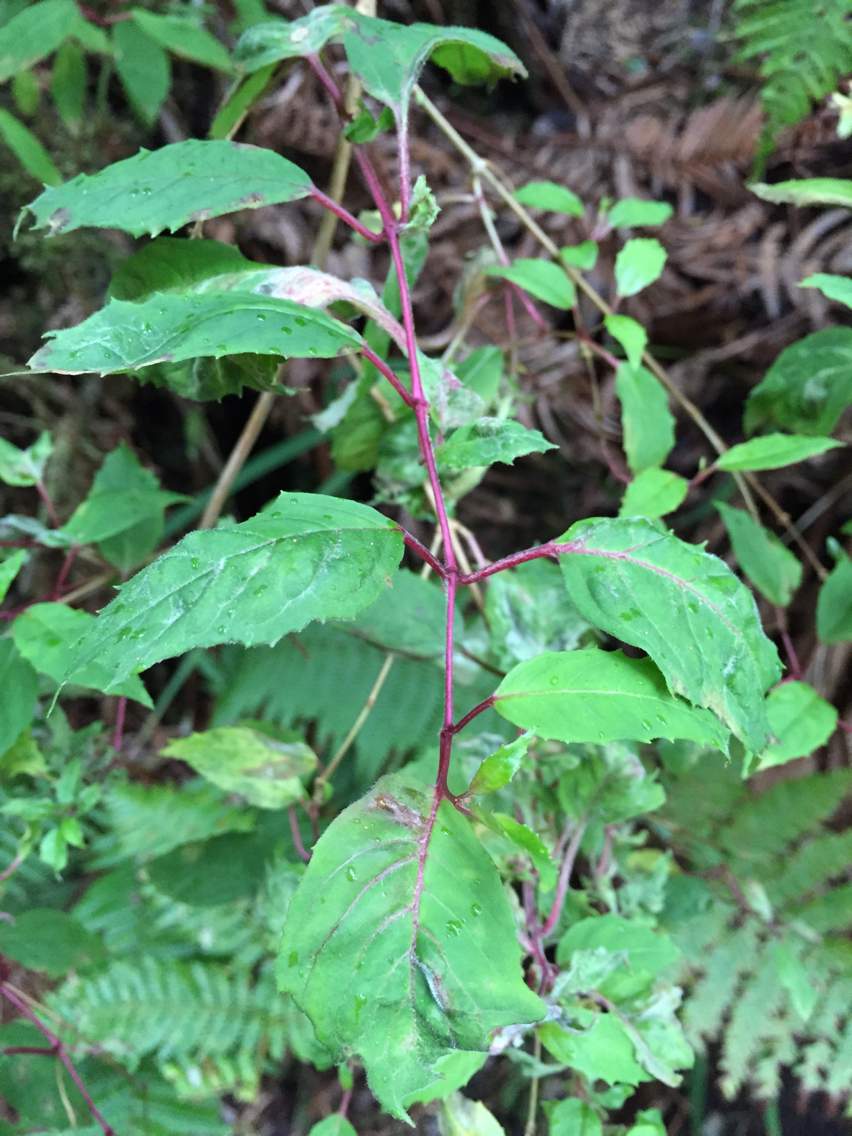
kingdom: Plantae
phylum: Tracheophyta
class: Magnoliopsida
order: Myrtales
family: Onagraceae
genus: Fuchsia
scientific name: Fuchsia magellanica
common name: Hardy fuchsia
